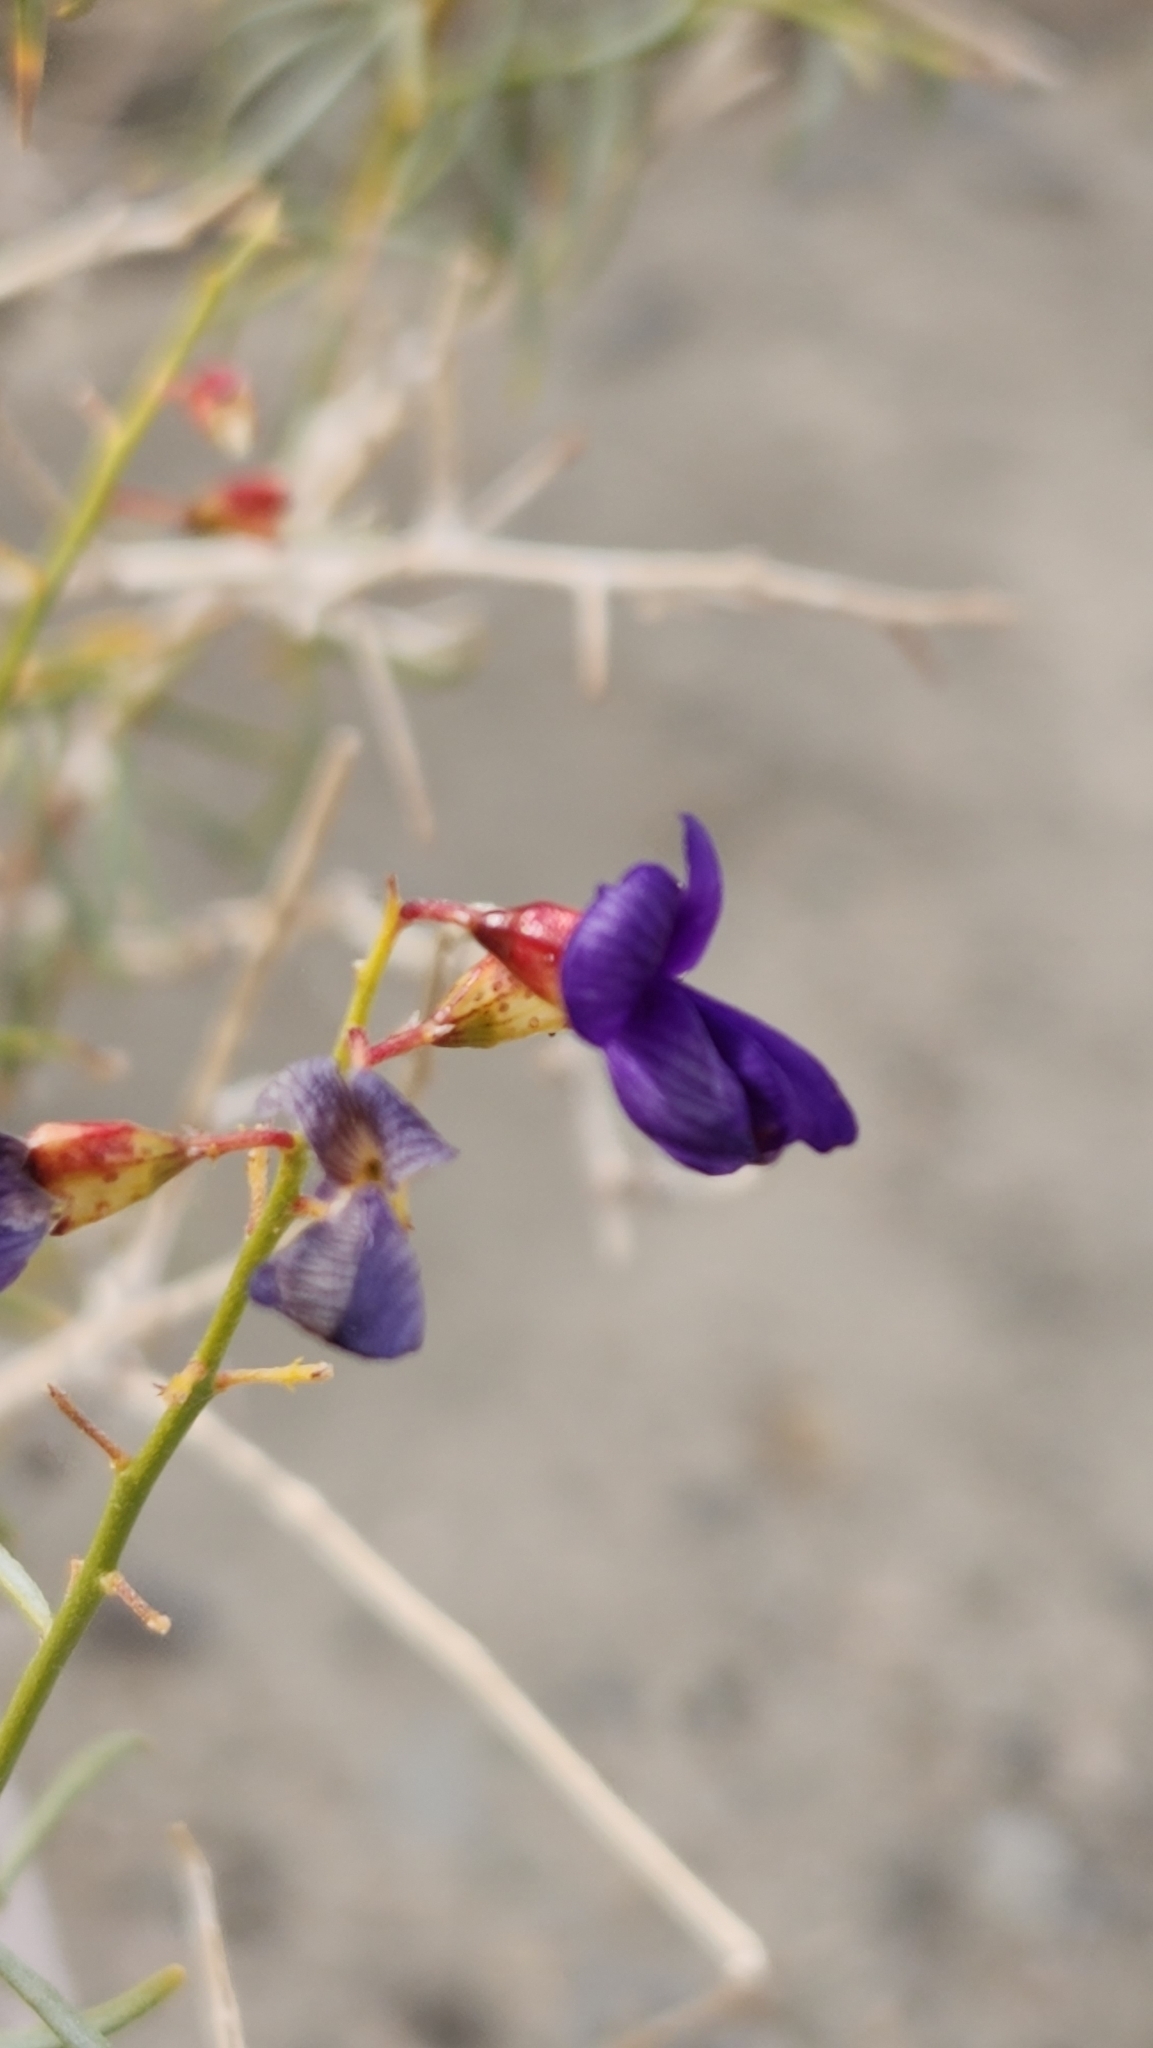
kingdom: Plantae
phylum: Tracheophyta
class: Magnoliopsida
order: Fabales
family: Fabaceae
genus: Psorothamnus
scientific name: Psorothamnus schottii
